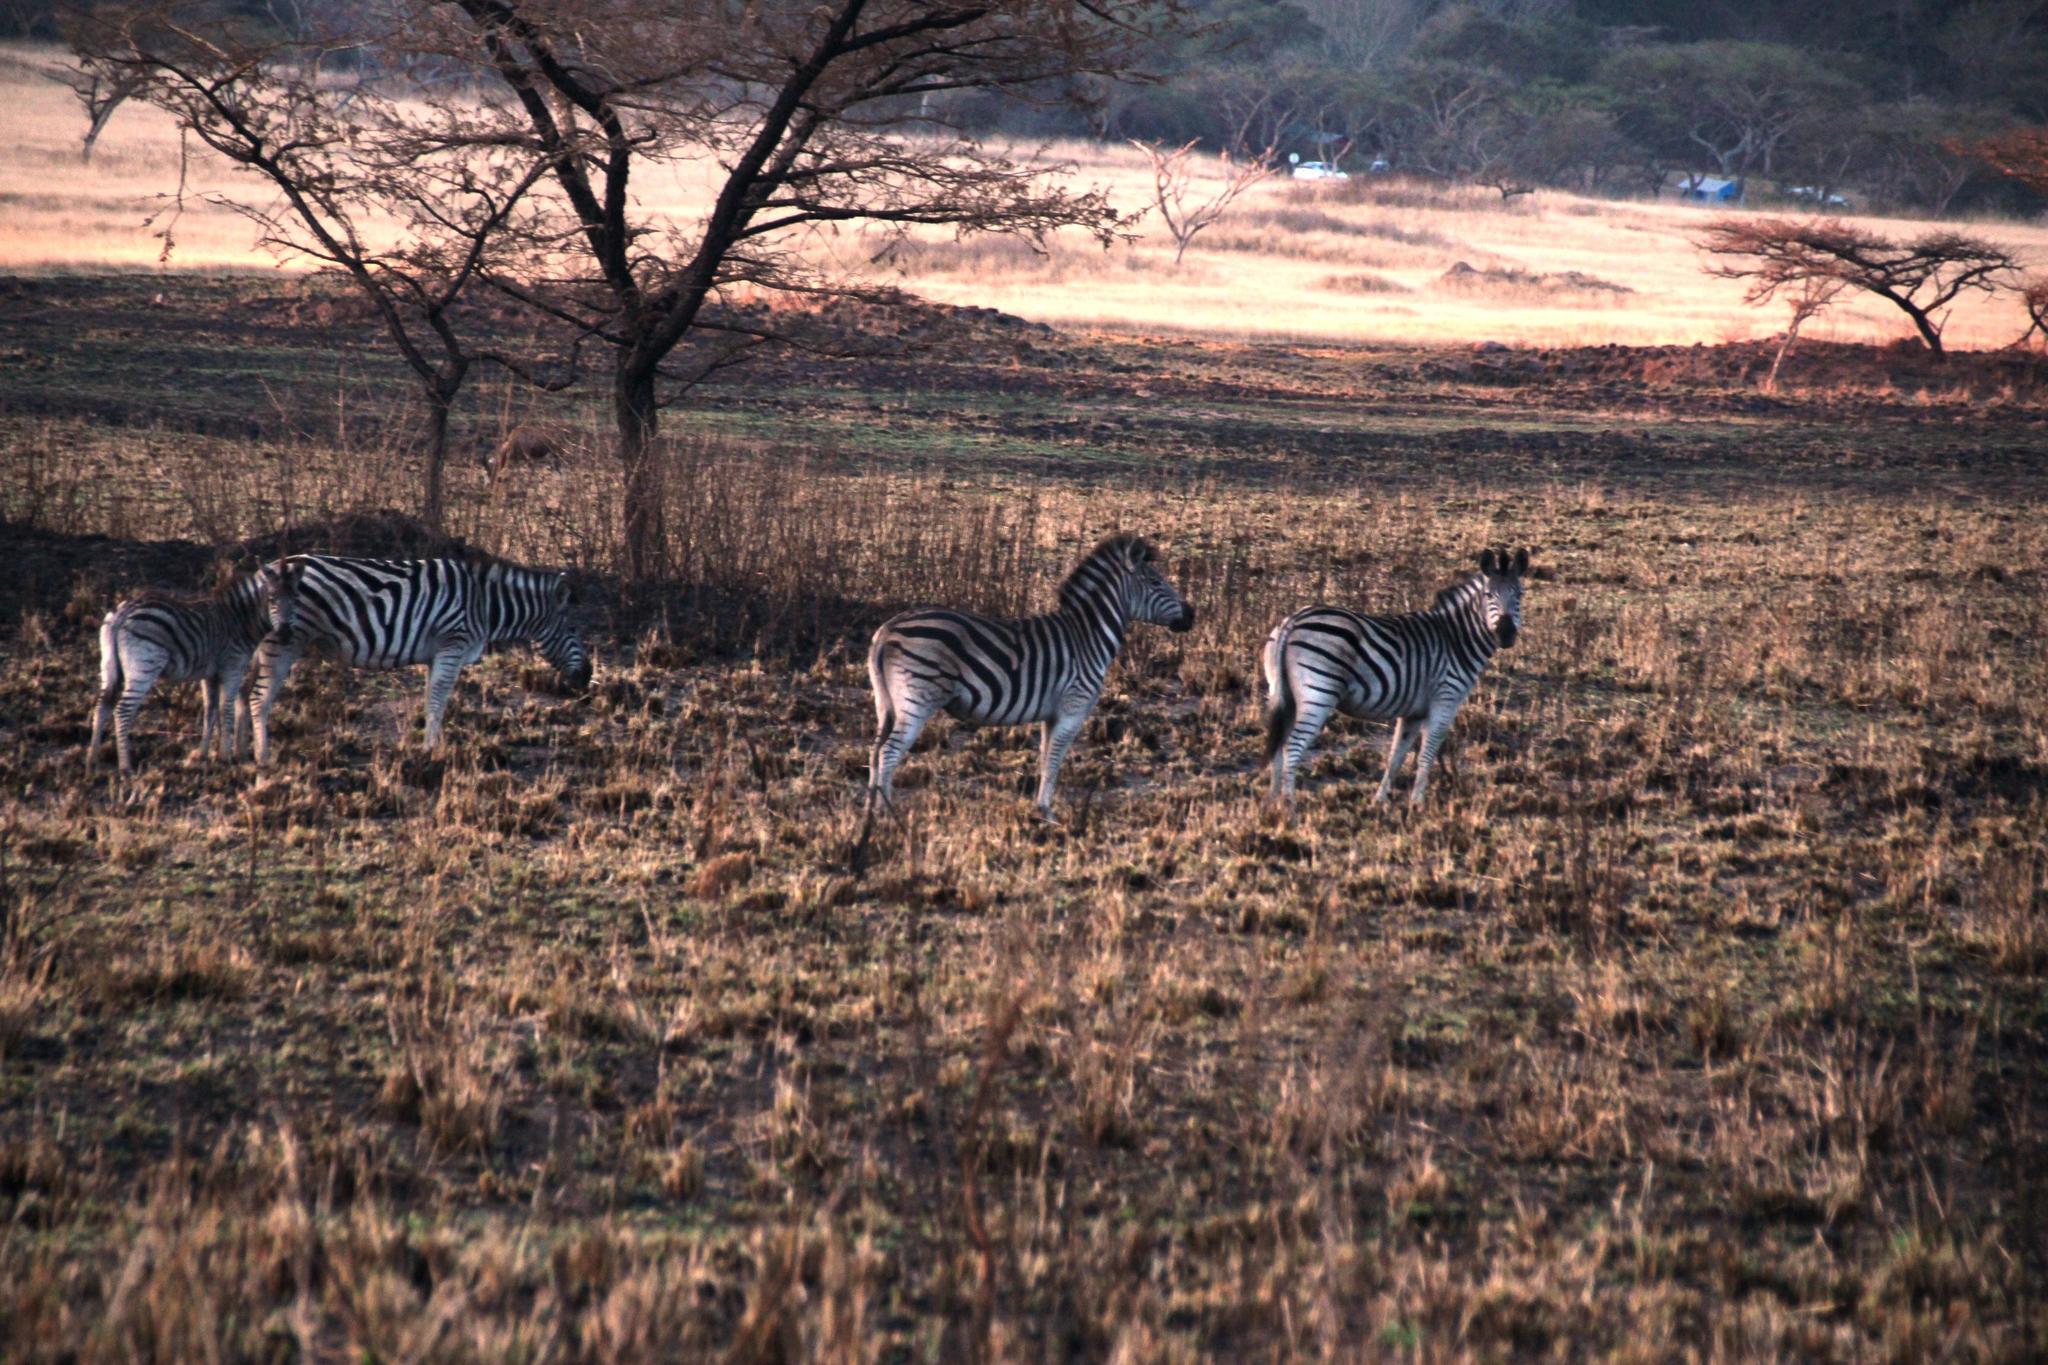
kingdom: Animalia
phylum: Chordata
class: Mammalia
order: Perissodactyla
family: Equidae
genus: Equus
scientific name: Equus quagga
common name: Plains zebra
